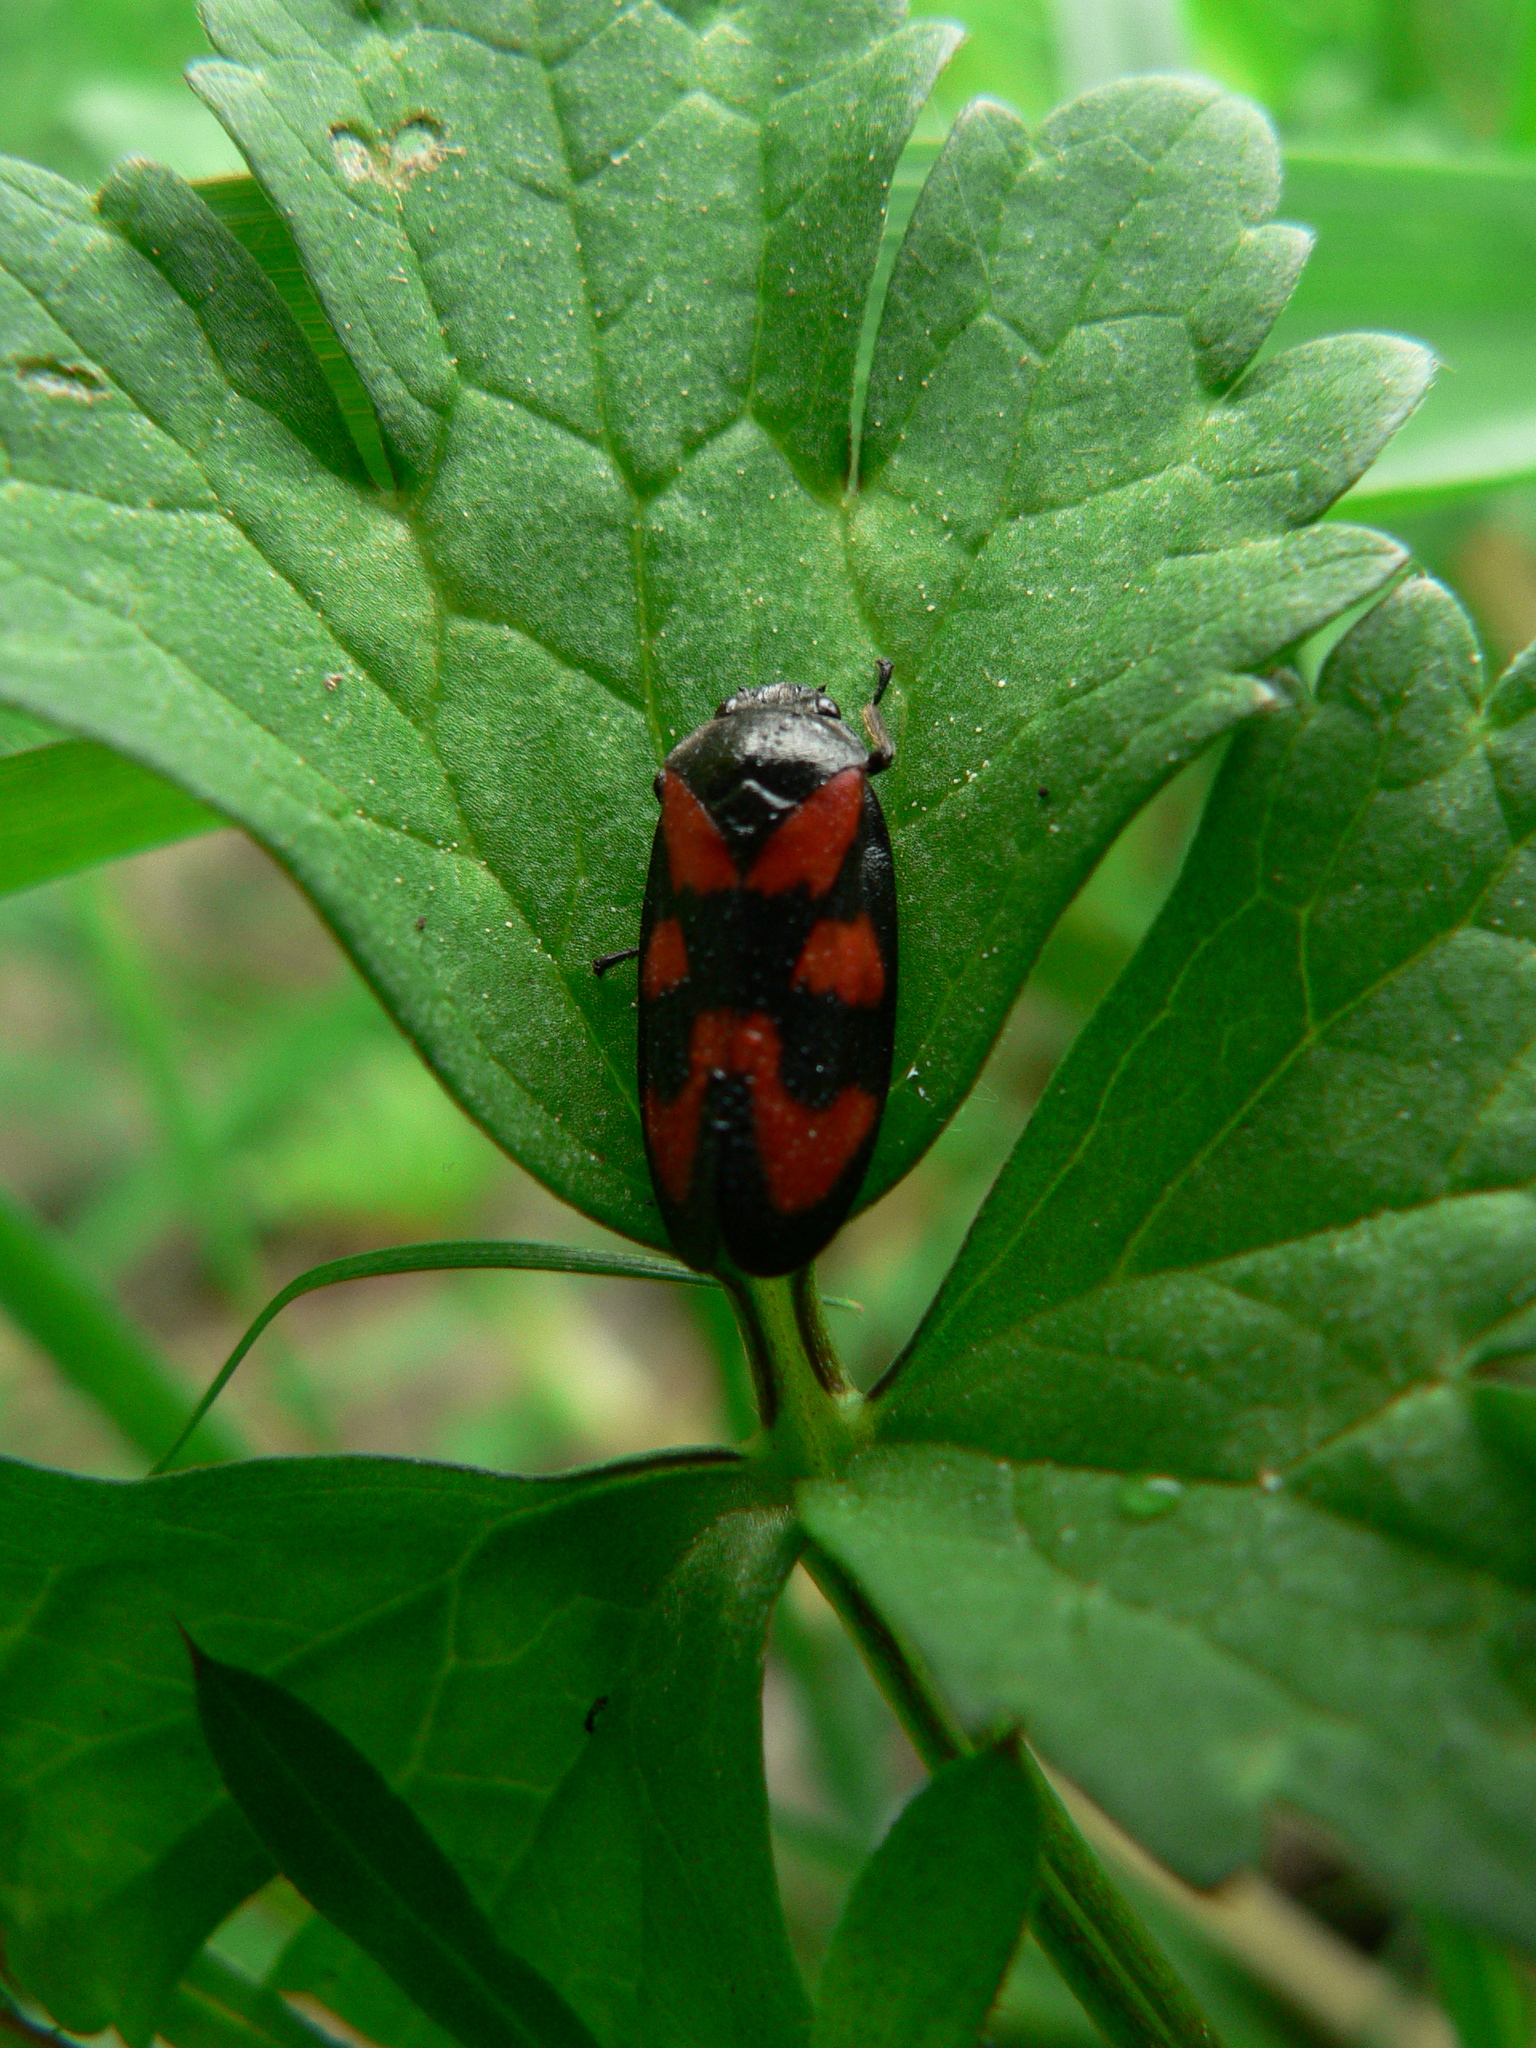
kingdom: Animalia
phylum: Arthropoda
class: Insecta
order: Hemiptera
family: Cercopidae
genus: Cercopis
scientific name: Cercopis vulnerata
